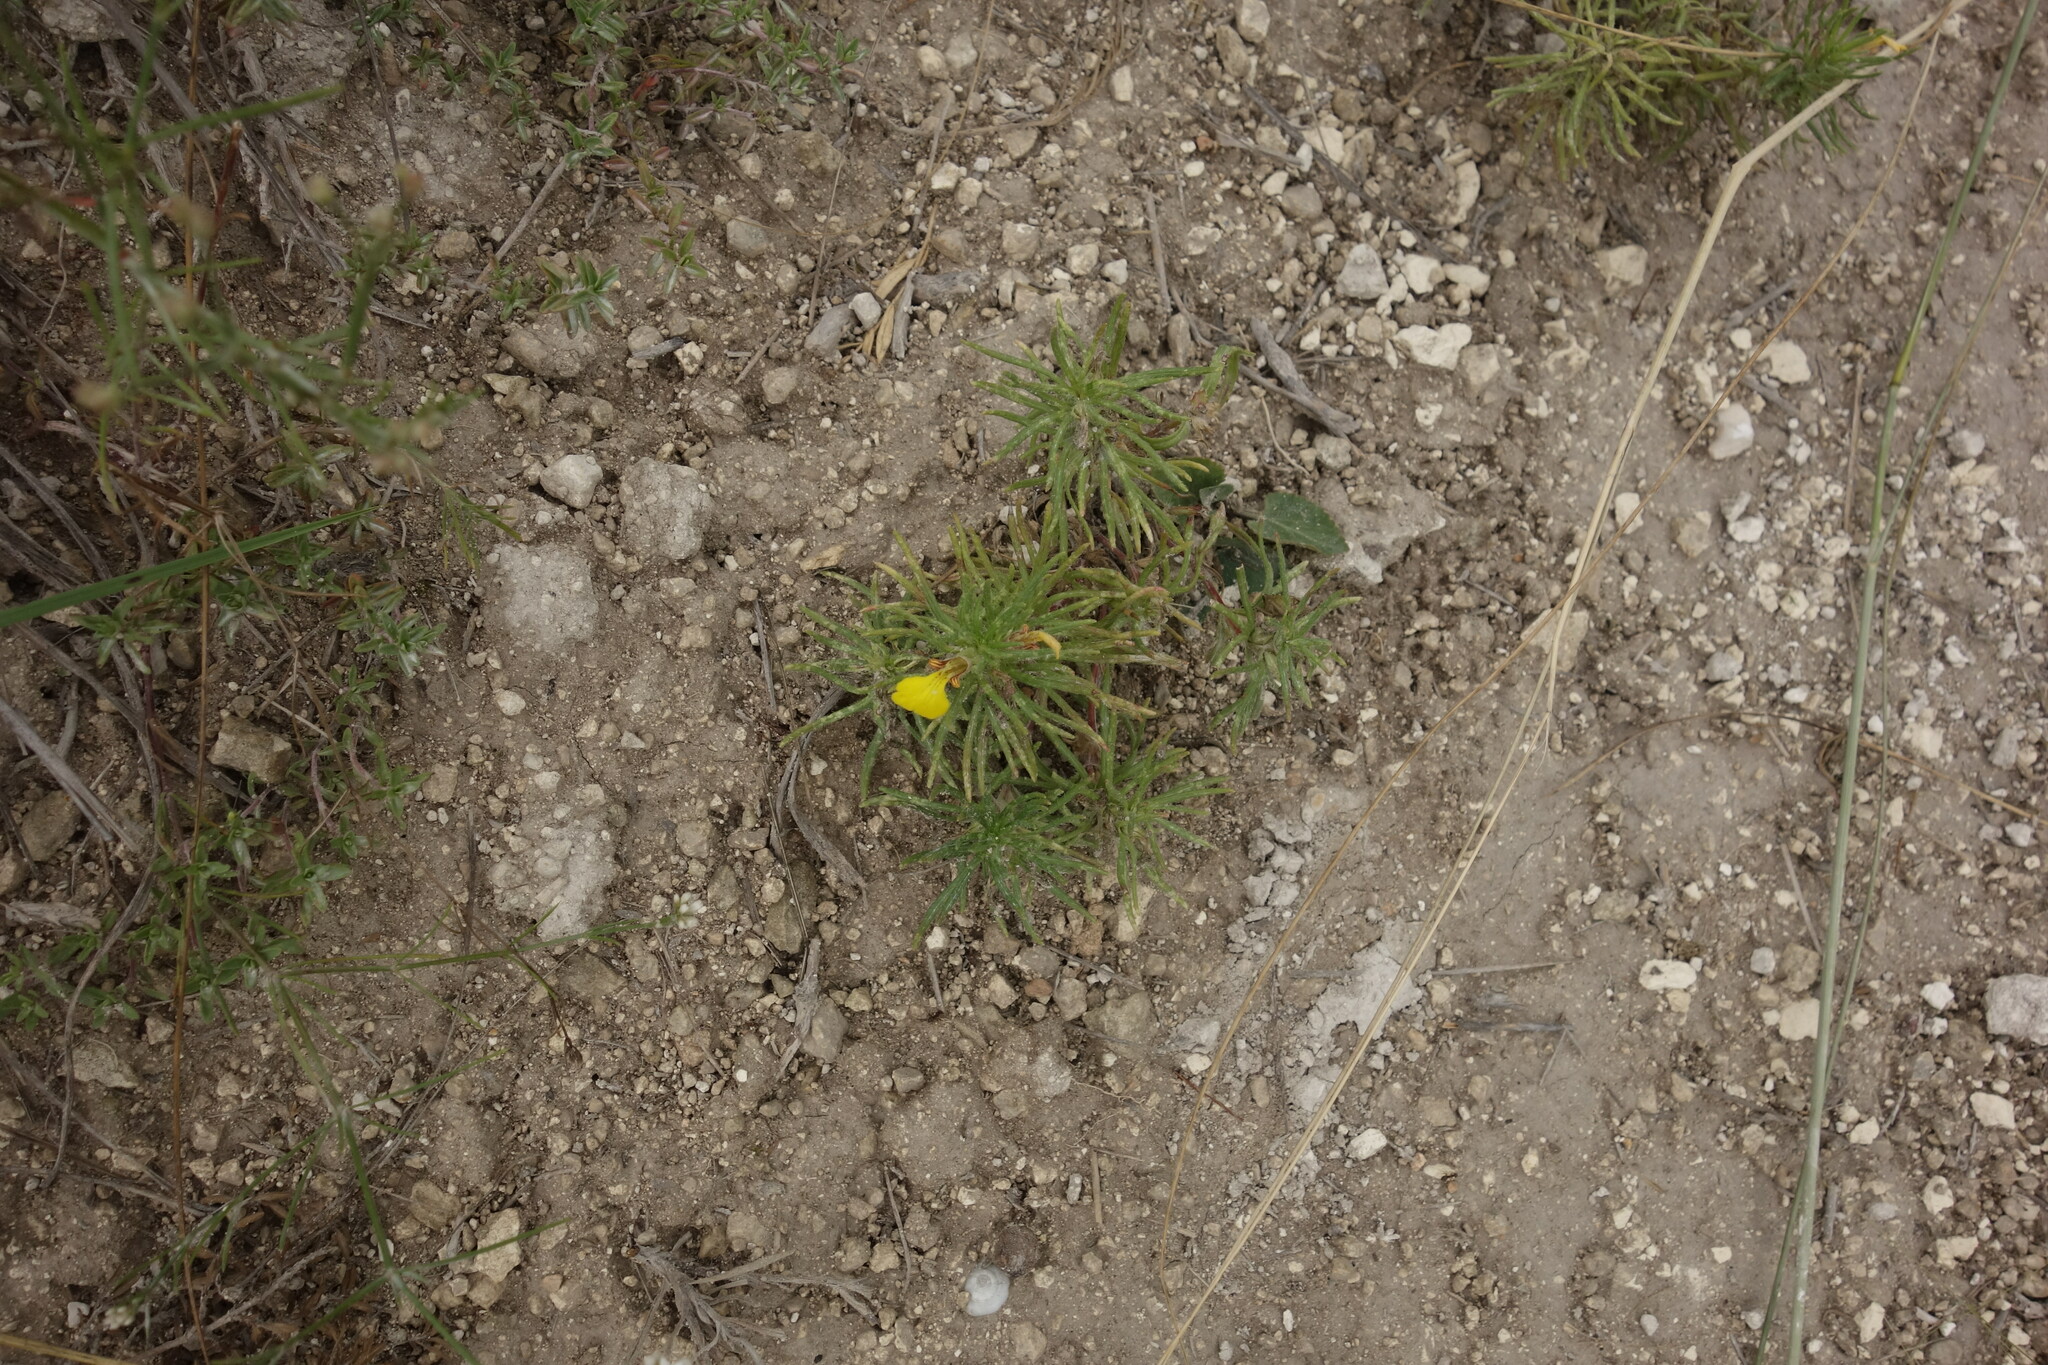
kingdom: Plantae
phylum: Tracheophyta
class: Magnoliopsida
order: Lamiales
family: Lamiaceae
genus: Ajuga
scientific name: Ajuga chamaepitys
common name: Ground-pine
